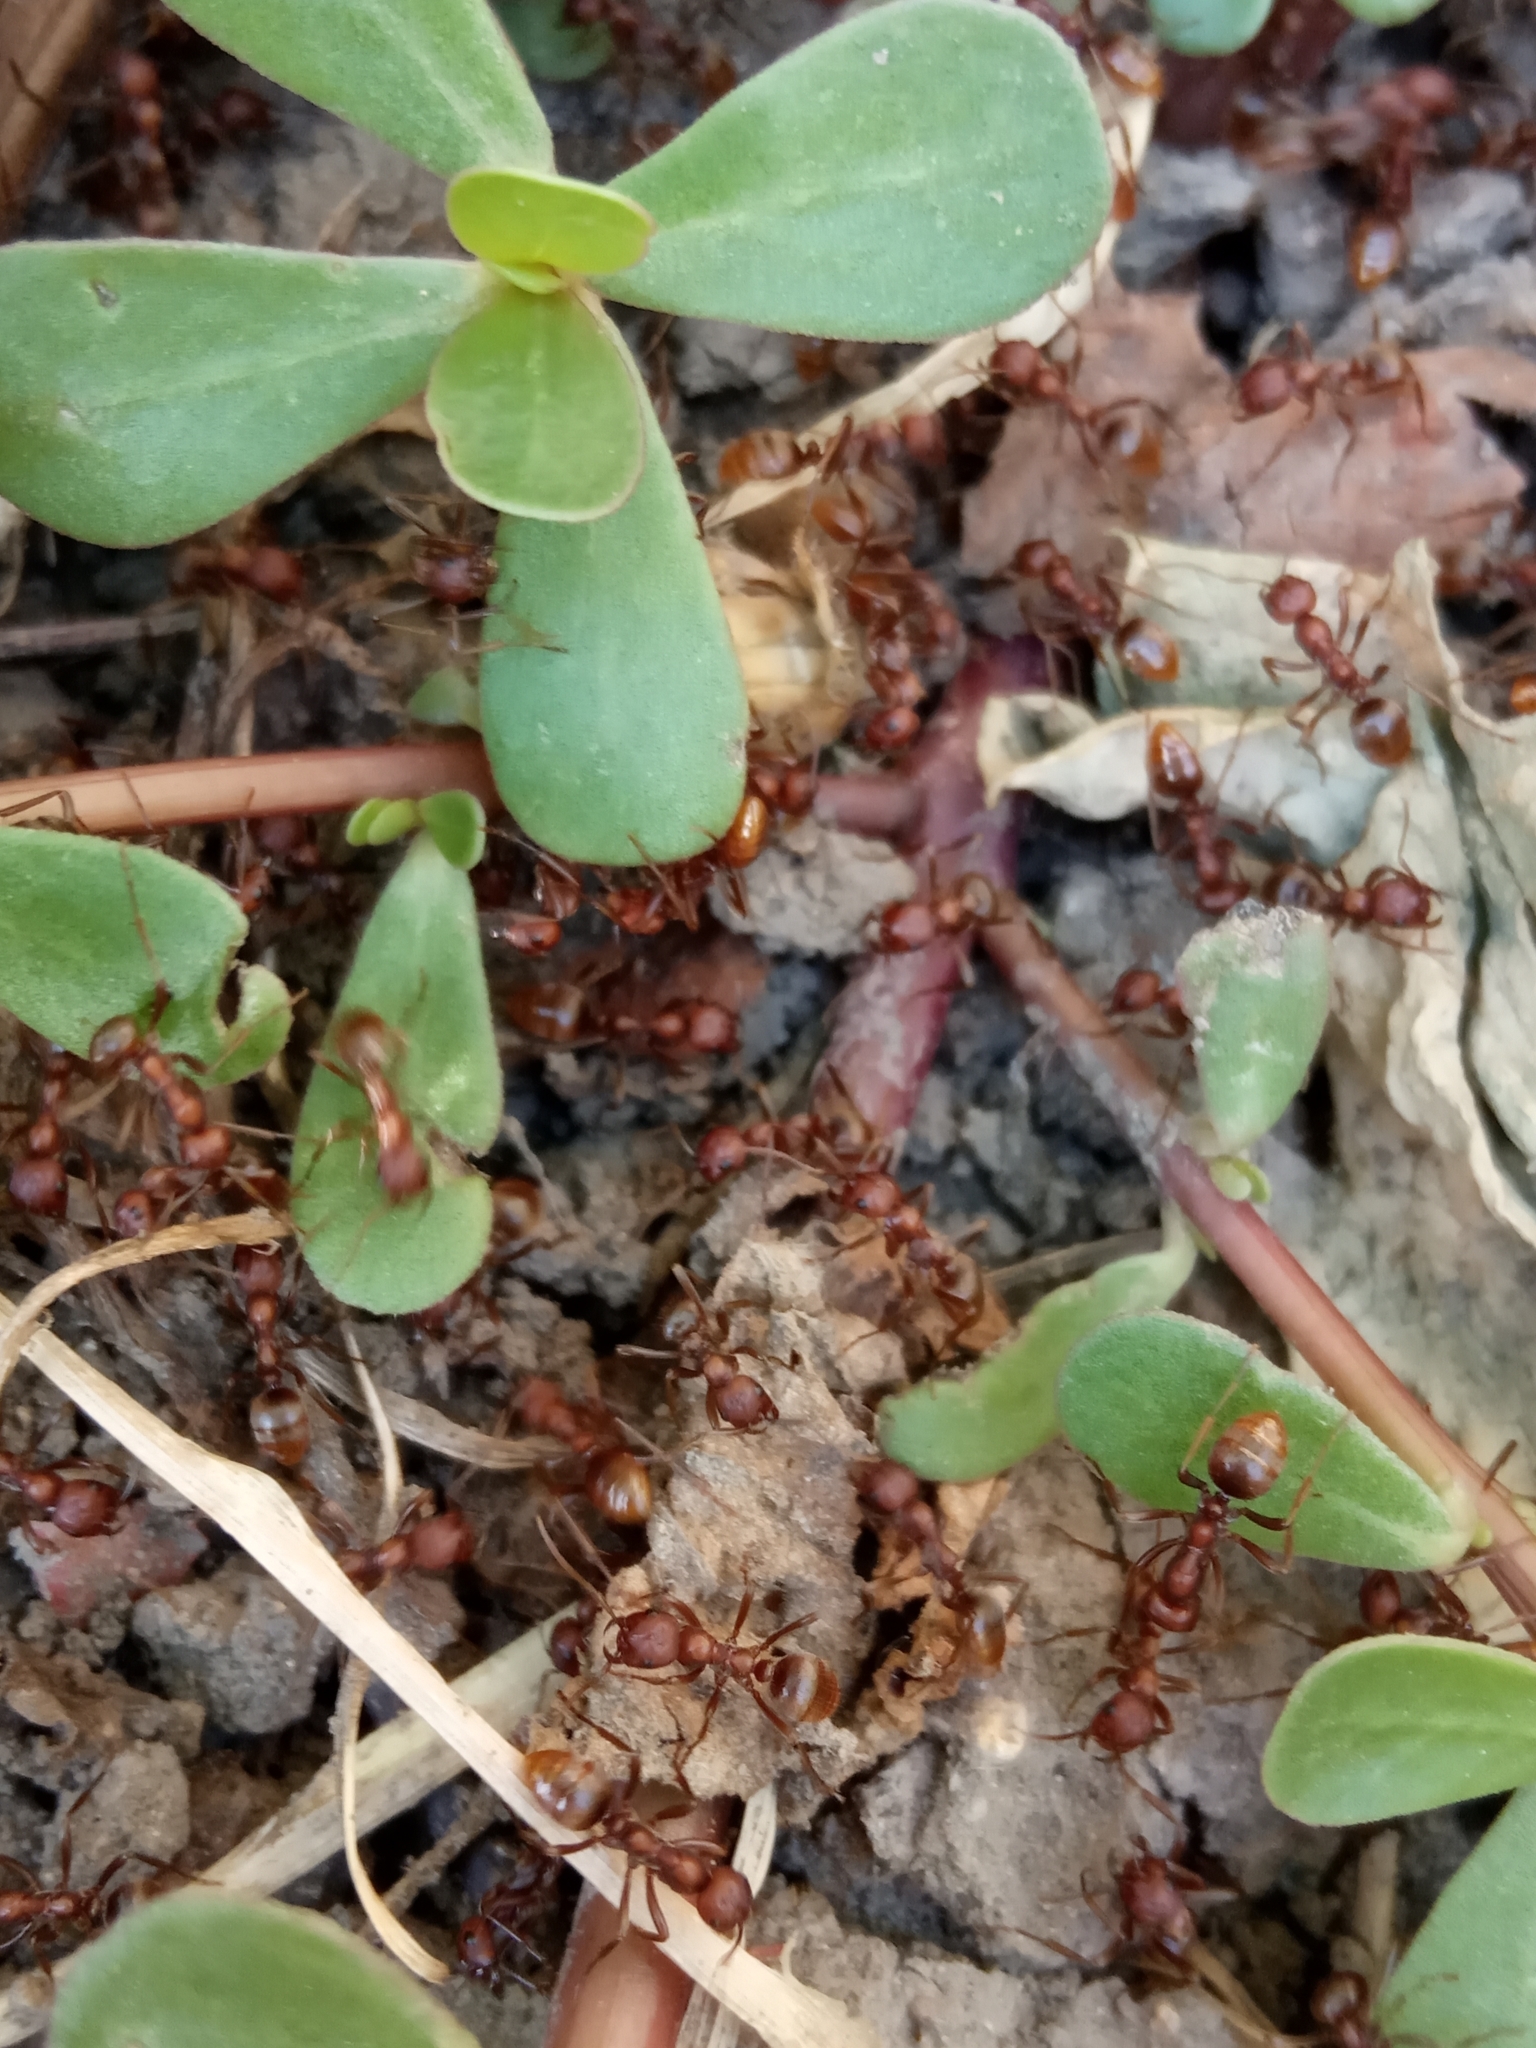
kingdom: Animalia
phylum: Arthropoda
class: Insecta
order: Hymenoptera
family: Formicidae
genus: Polyergus
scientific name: Polyergus rufescens
